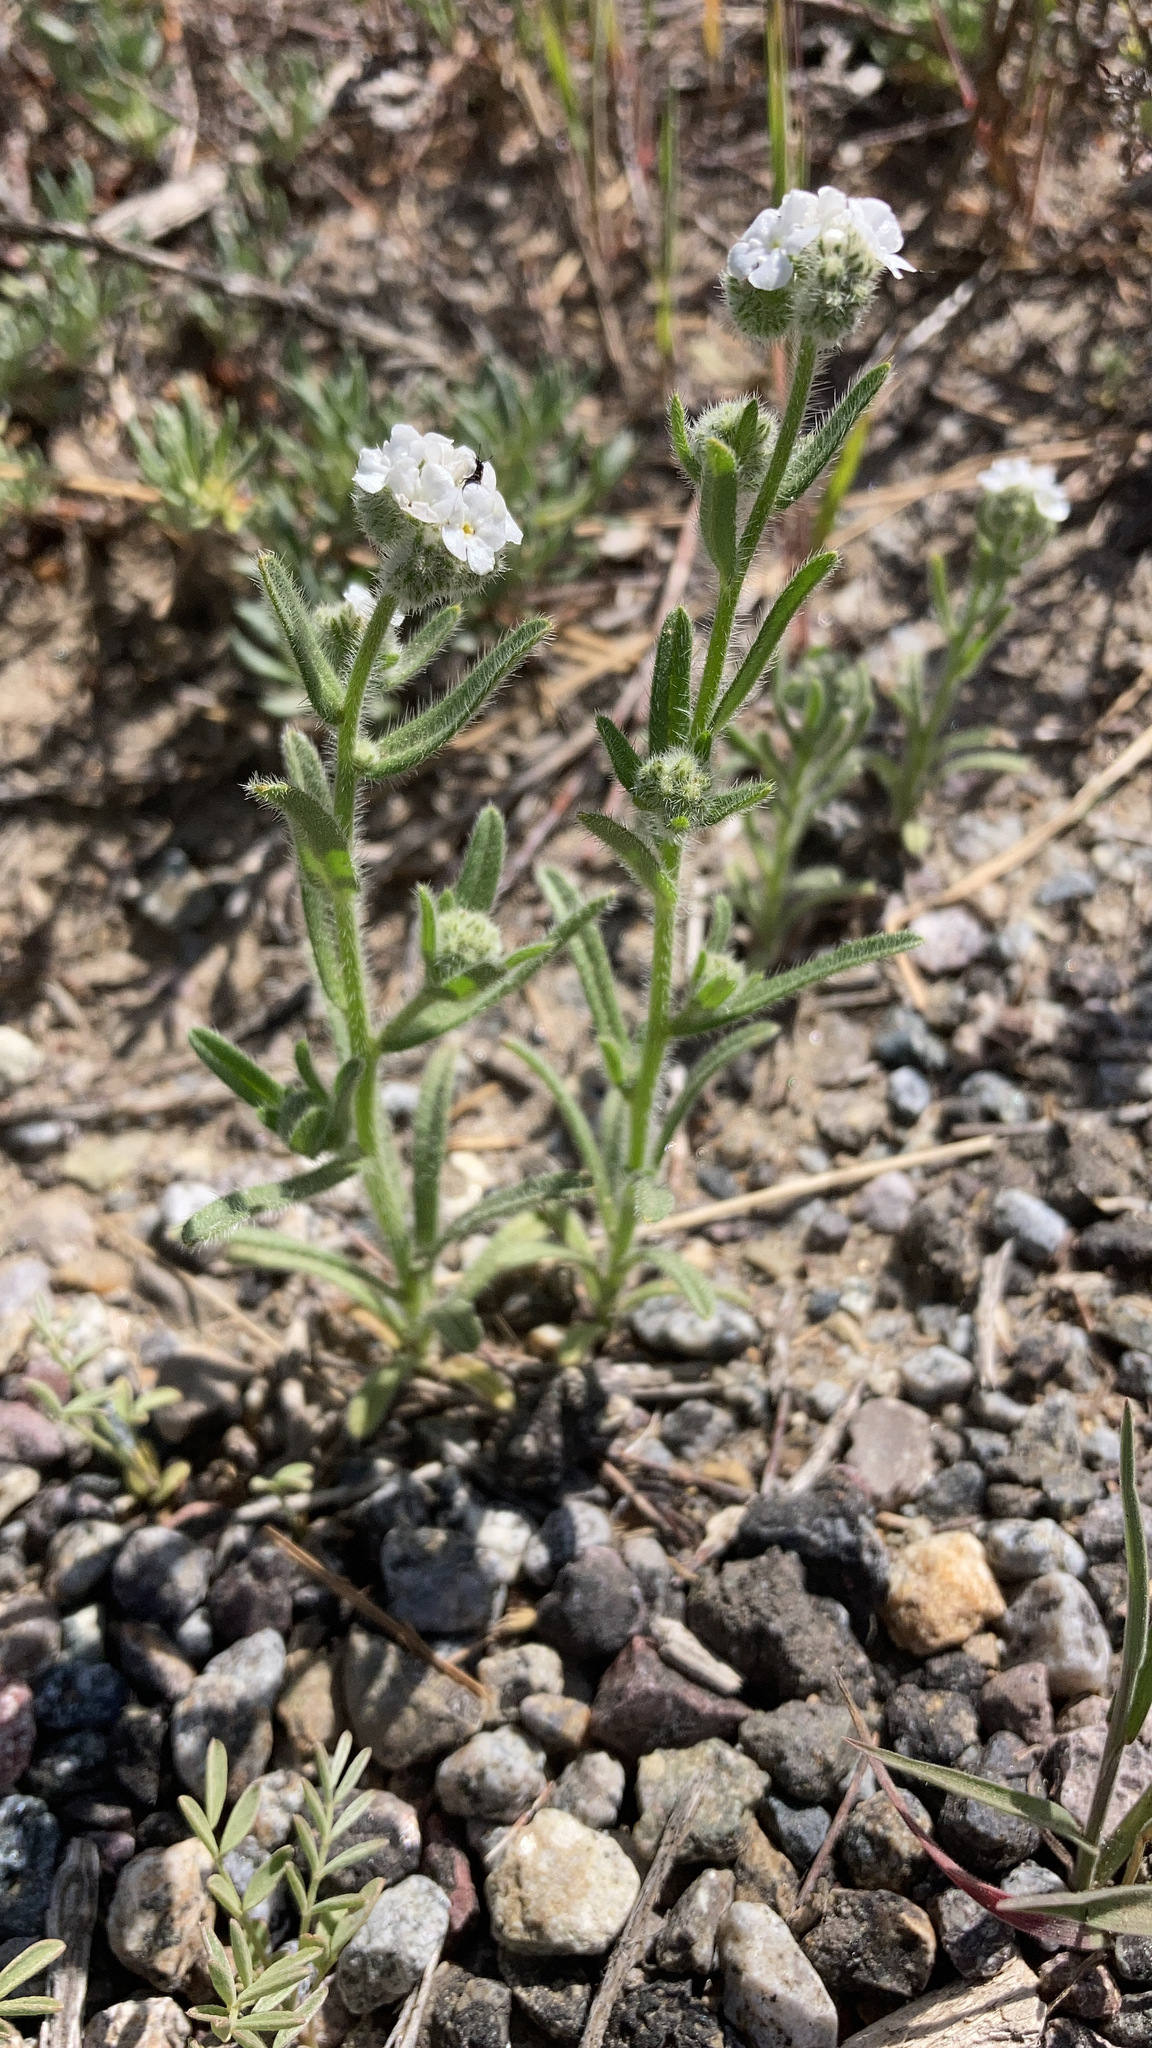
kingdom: Plantae
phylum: Tracheophyta
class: Magnoliopsida
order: Boraginales
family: Boraginaceae
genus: Cryptantha
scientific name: Cryptantha intermedia
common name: Clearwater cryptantha
